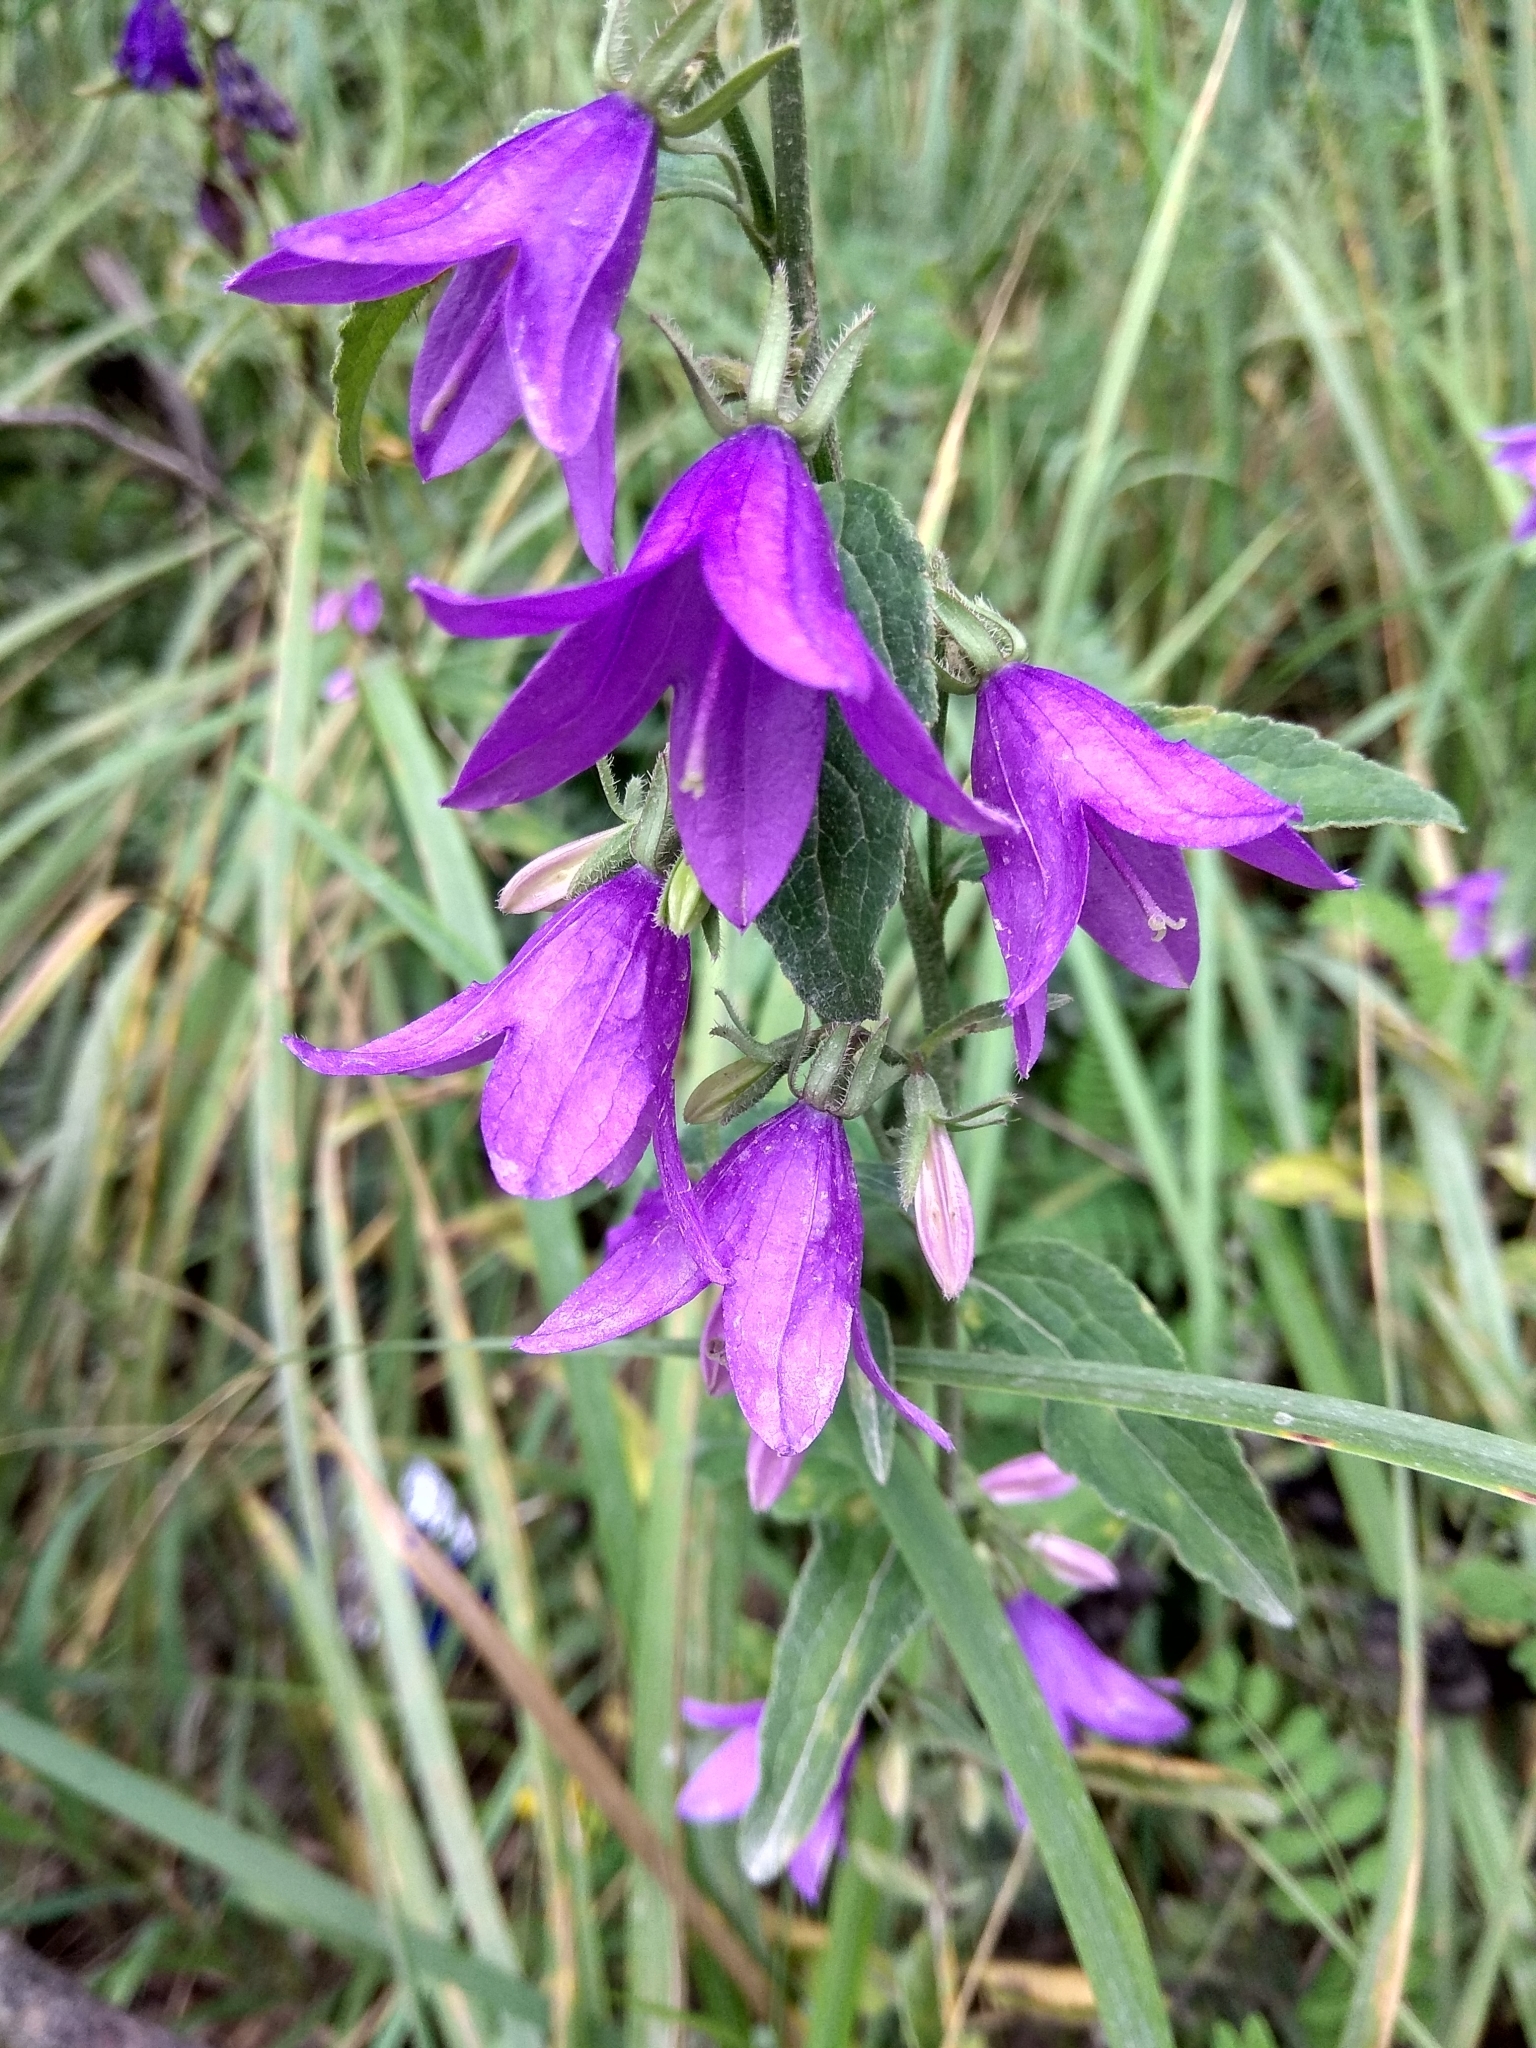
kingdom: Plantae
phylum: Tracheophyta
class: Magnoliopsida
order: Asterales
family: Campanulaceae
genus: Campanula
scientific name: Campanula rapunculoides
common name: Creeping bellflower
